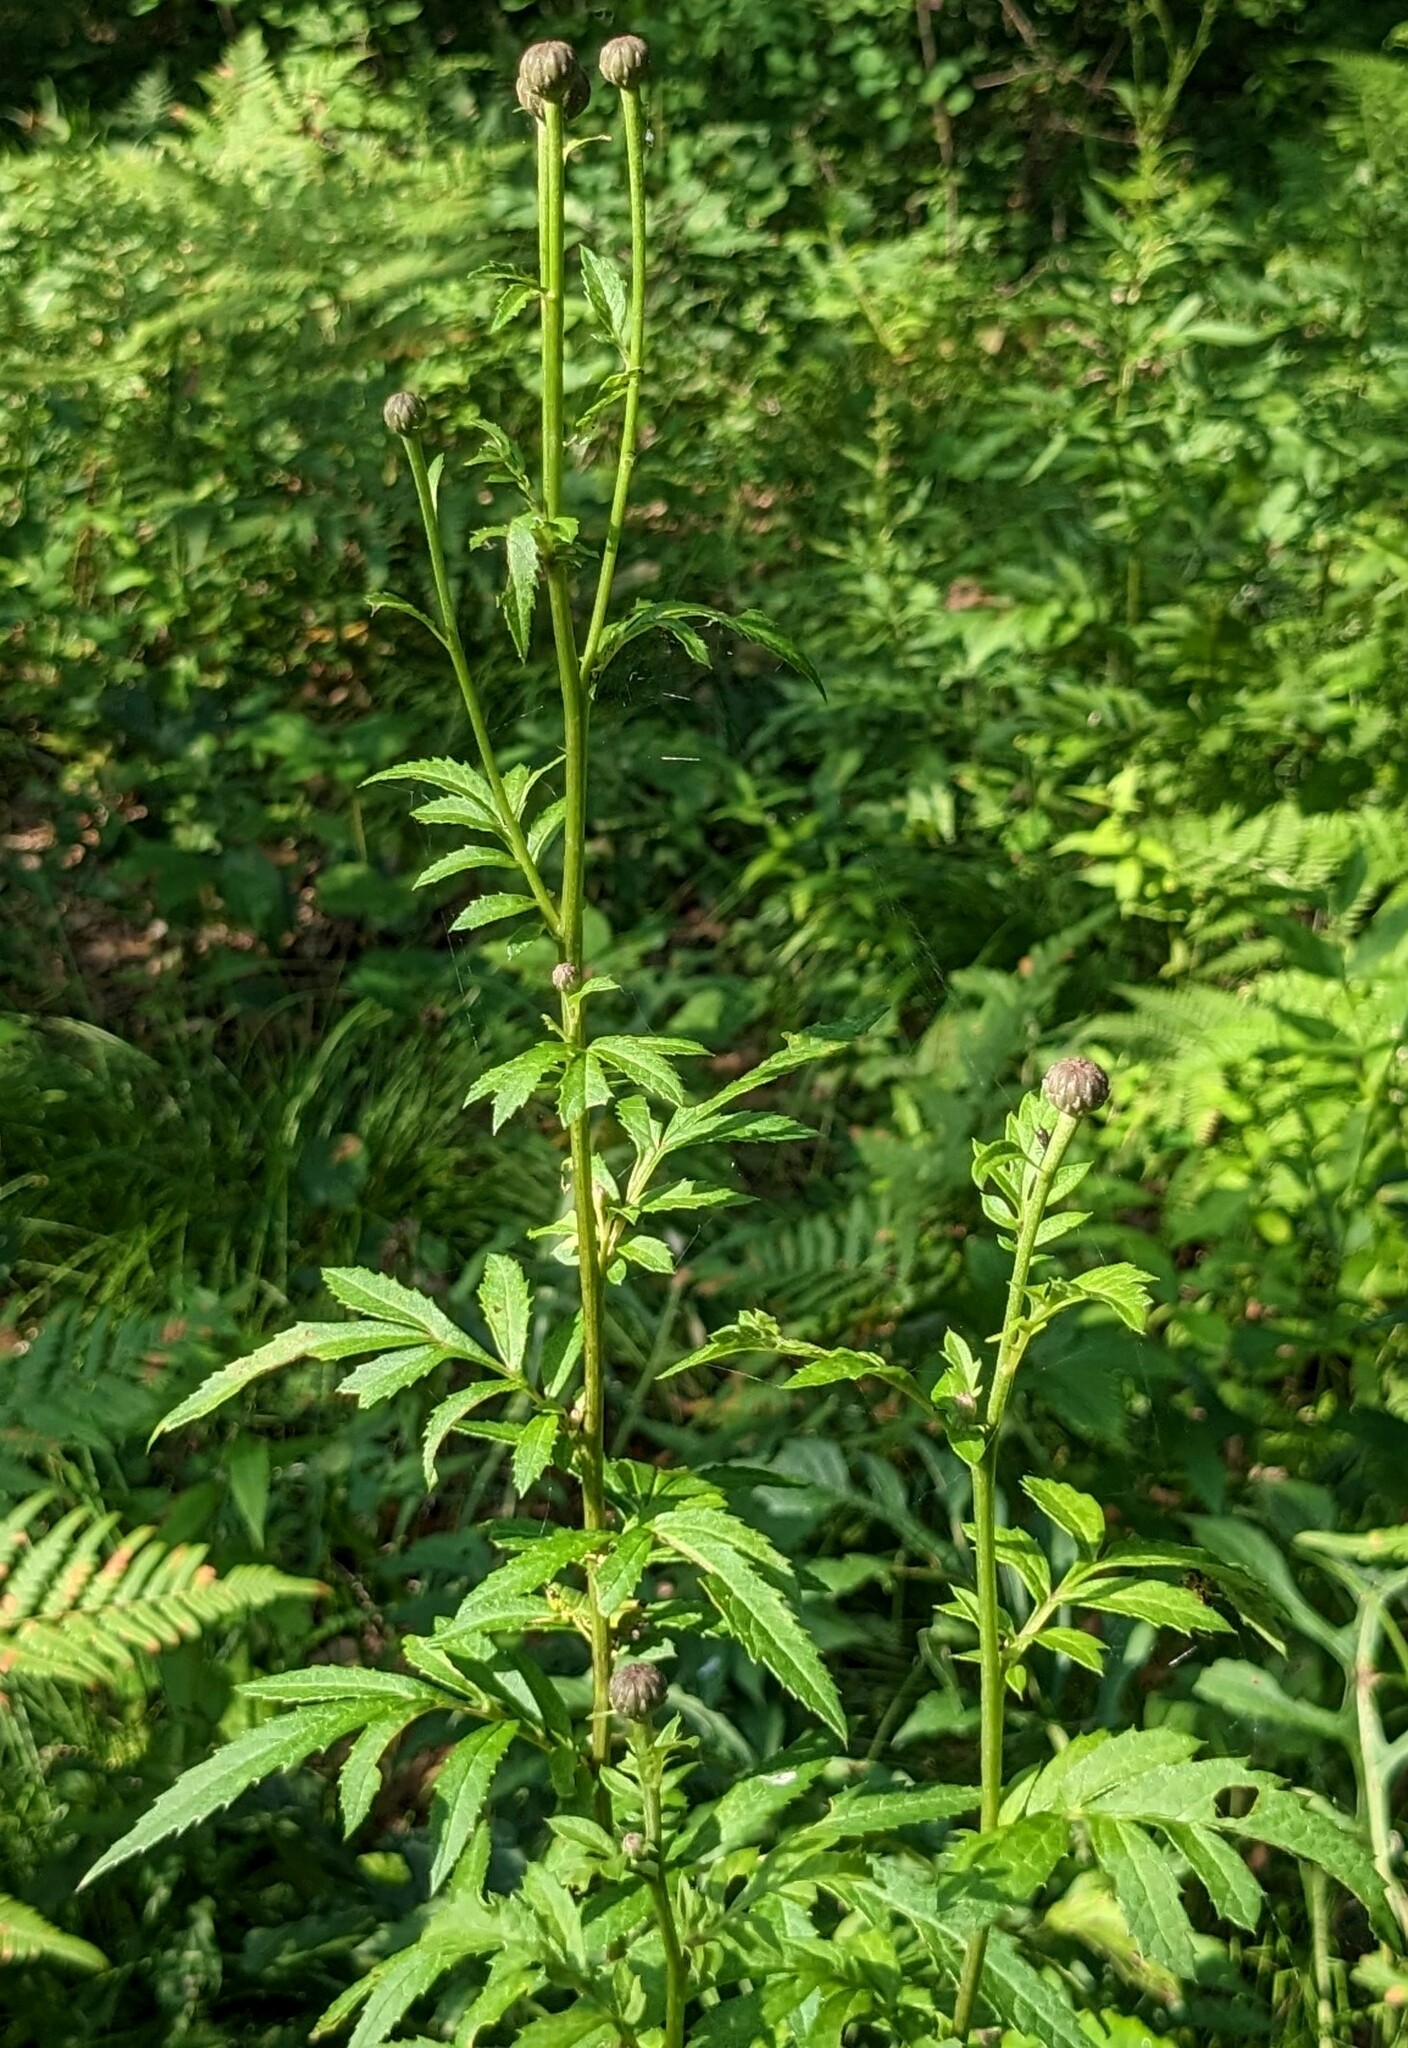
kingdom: Plantae
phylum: Tracheophyta
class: Magnoliopsida
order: Asterales
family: Asteraceae
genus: Serratula
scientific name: Serratula coronata
